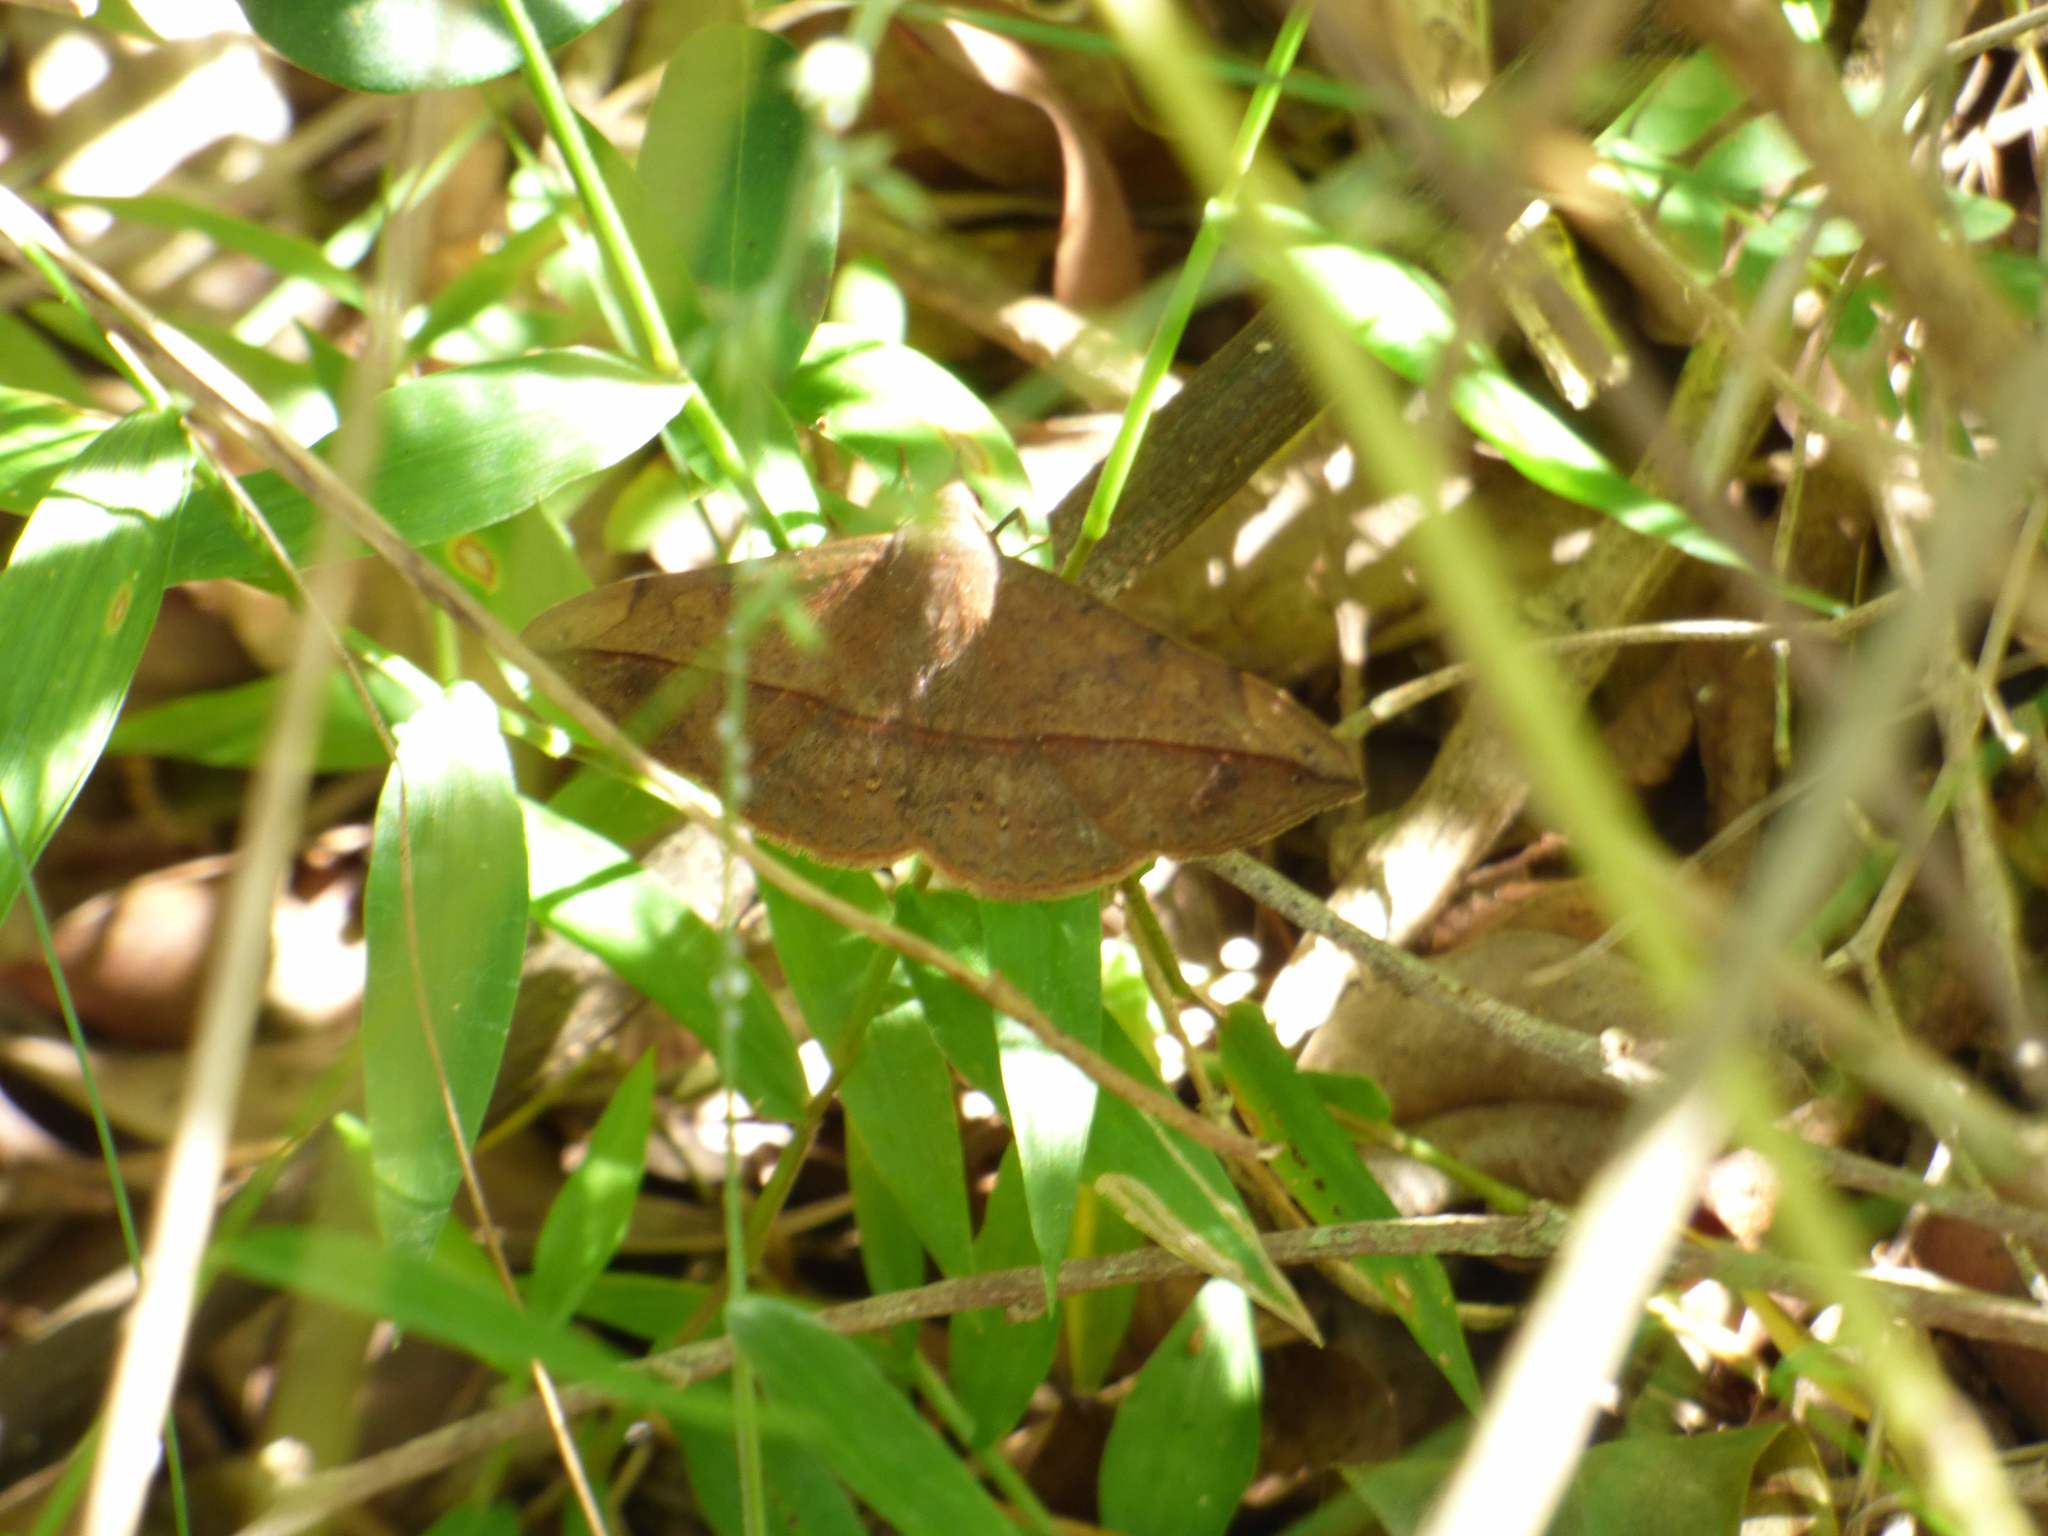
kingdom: Animalia
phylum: Arthropoda
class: Insecta
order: Lepidoptera
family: Erebidae
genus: Anticarsia
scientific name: Anticarsia gemmatalis
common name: Cutworm moth
